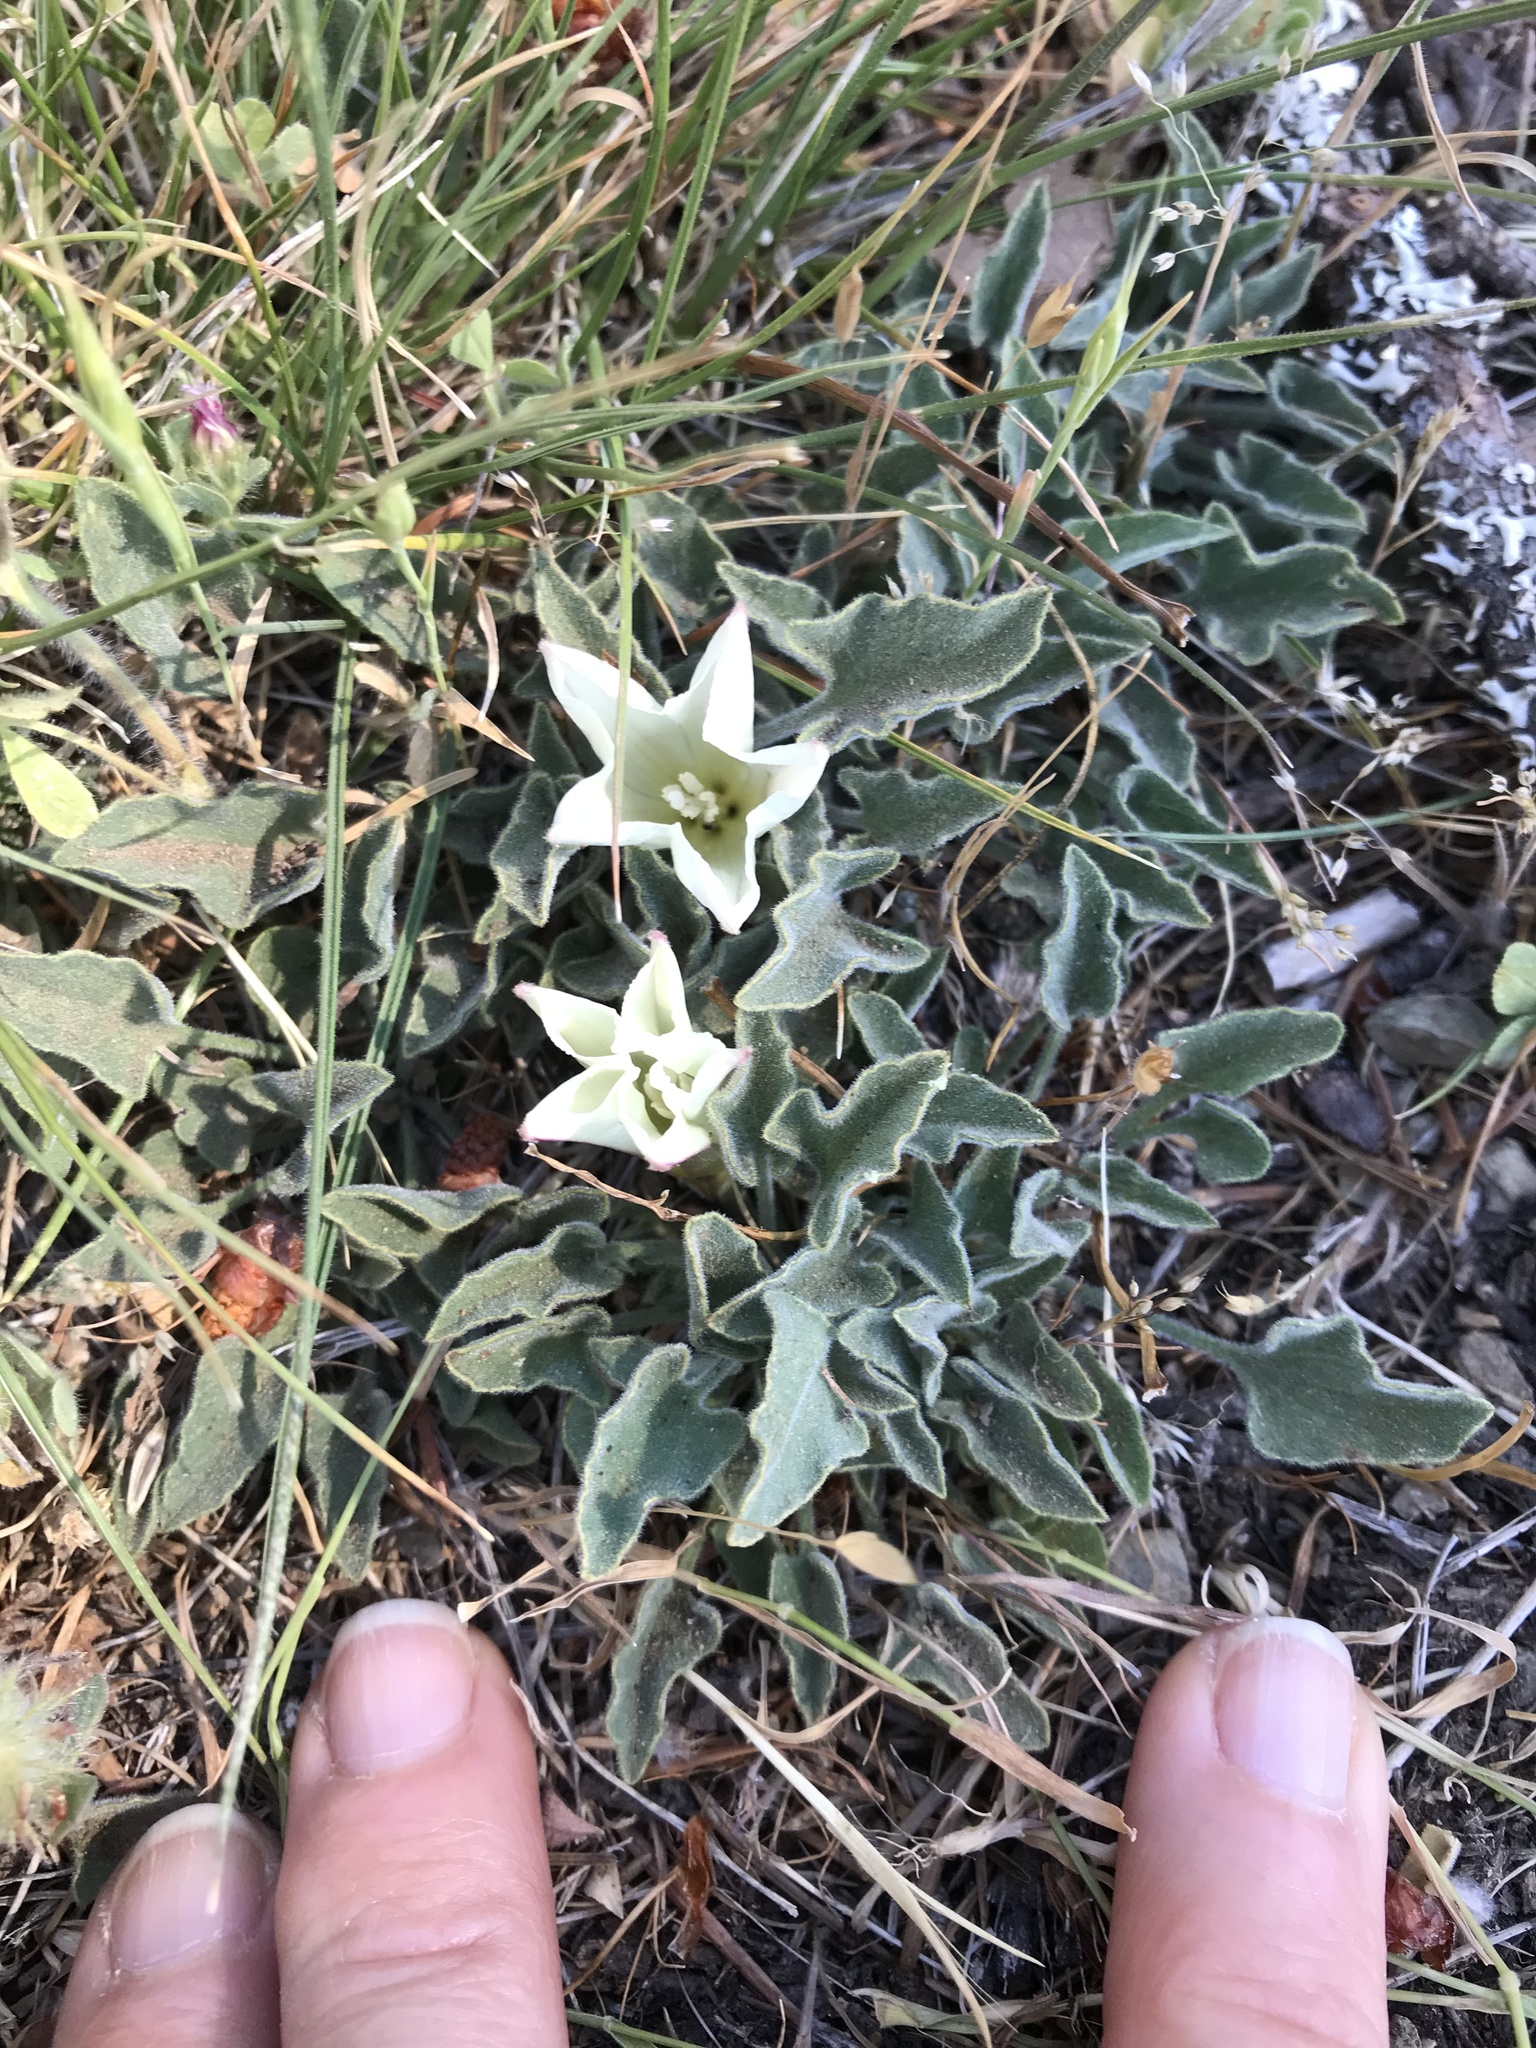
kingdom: Plantae
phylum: Tracheophyta
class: Magnoliopsida
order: Solanales
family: Convolvulaceae
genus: Calystegia
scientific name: Calystegia collina
